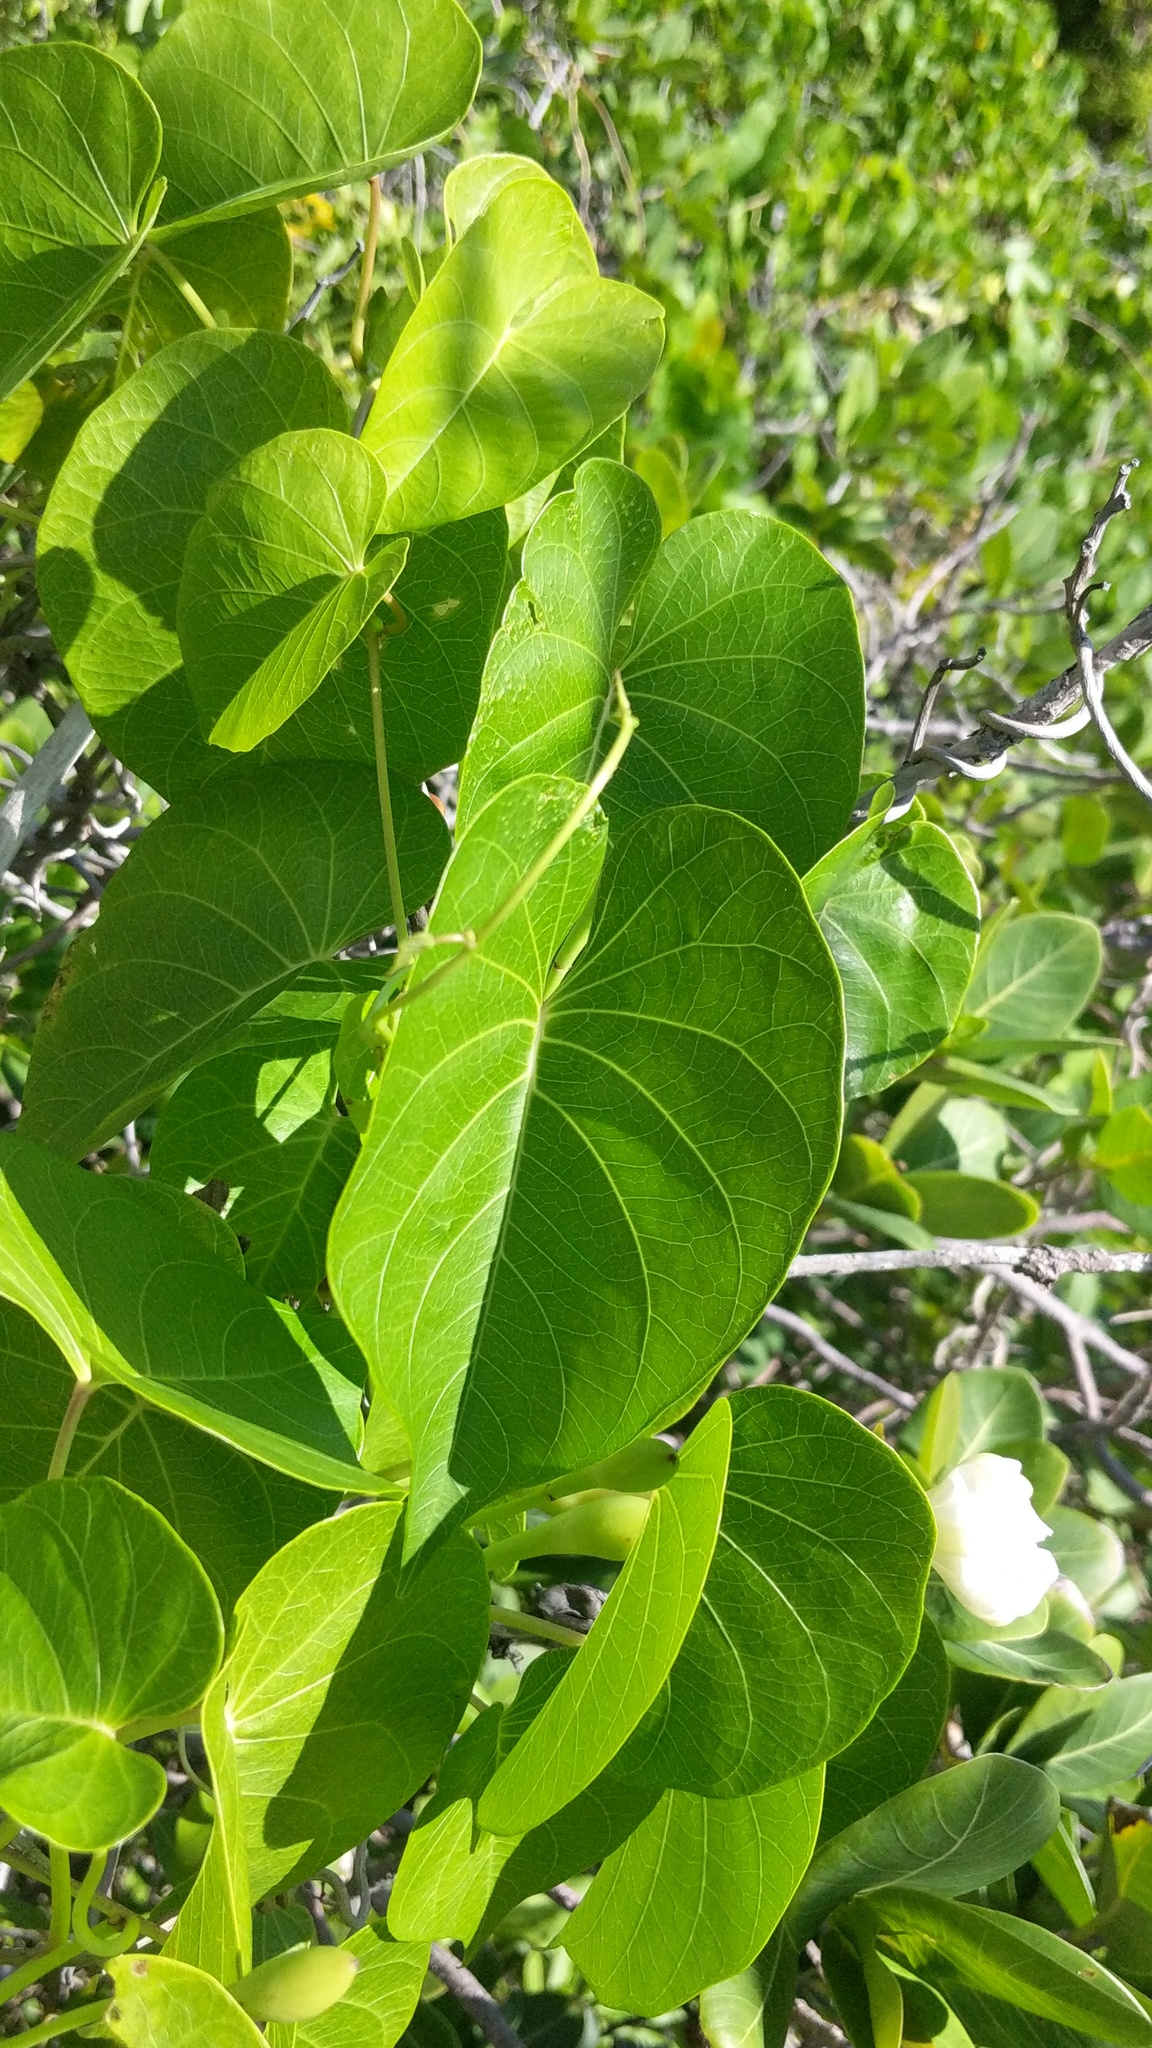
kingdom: Plantae
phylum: Tracheophyta
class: Magnoliopsida
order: Solanales
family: Convolvulaceae
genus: Ipomoea
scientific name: Ipomoea violacea
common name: Beach moonflower
